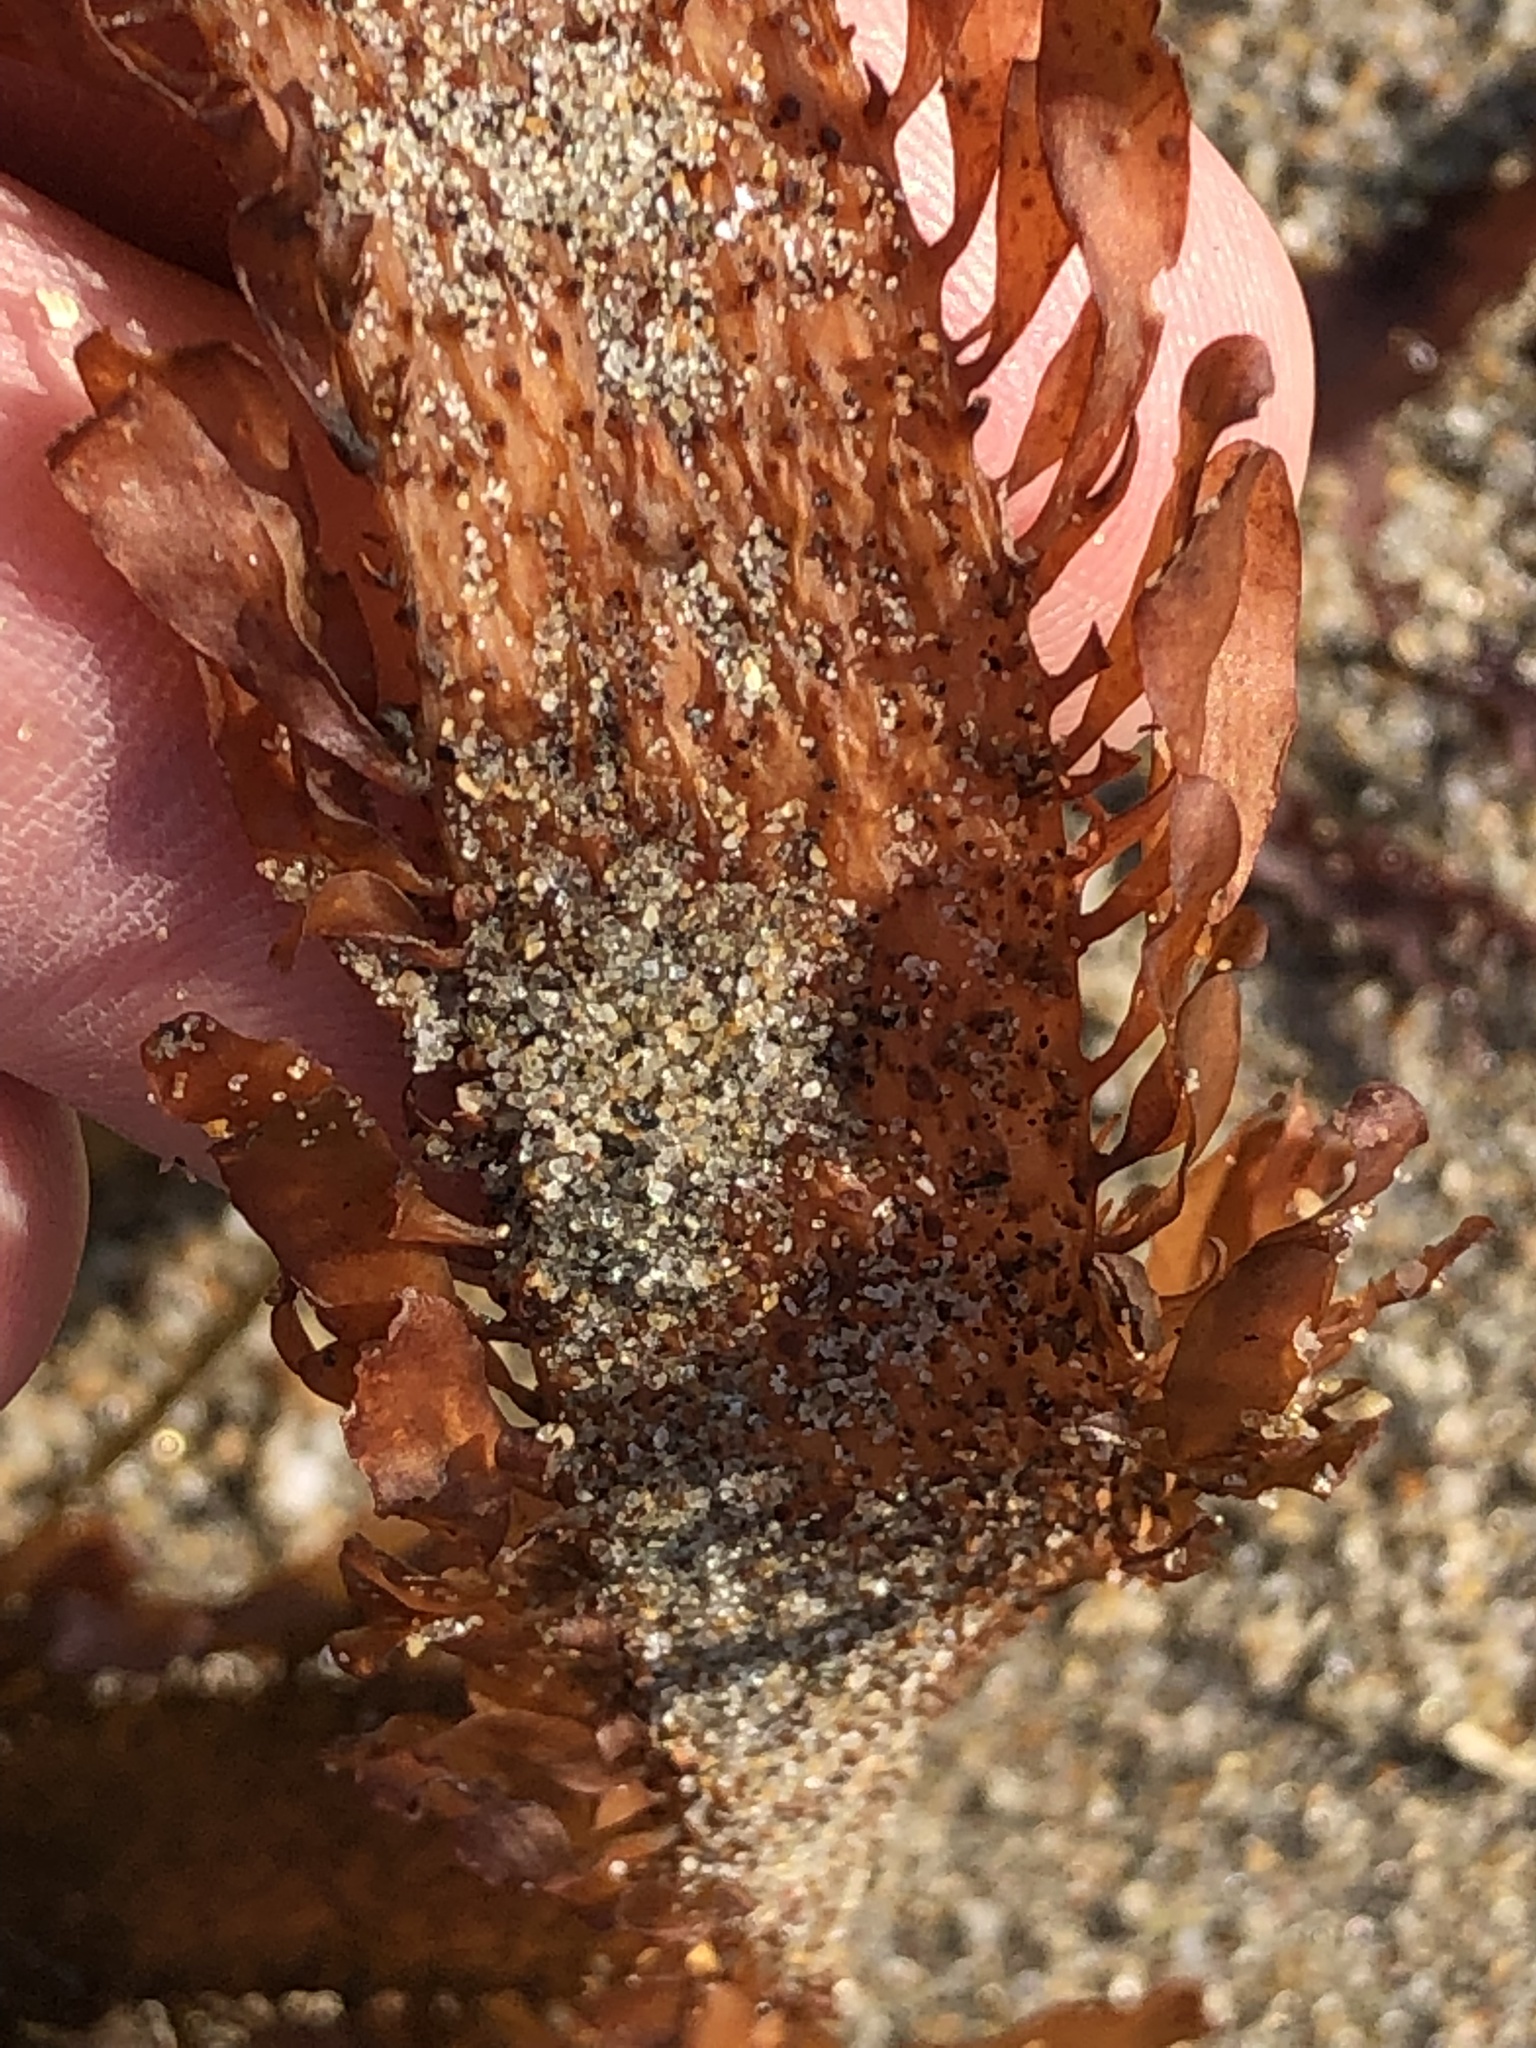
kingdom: Chromista
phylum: Ochrophyta
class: Phaeophyceae
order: Laminariales
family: Lessoniaceae
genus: Egregia
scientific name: Egregia menziesii
